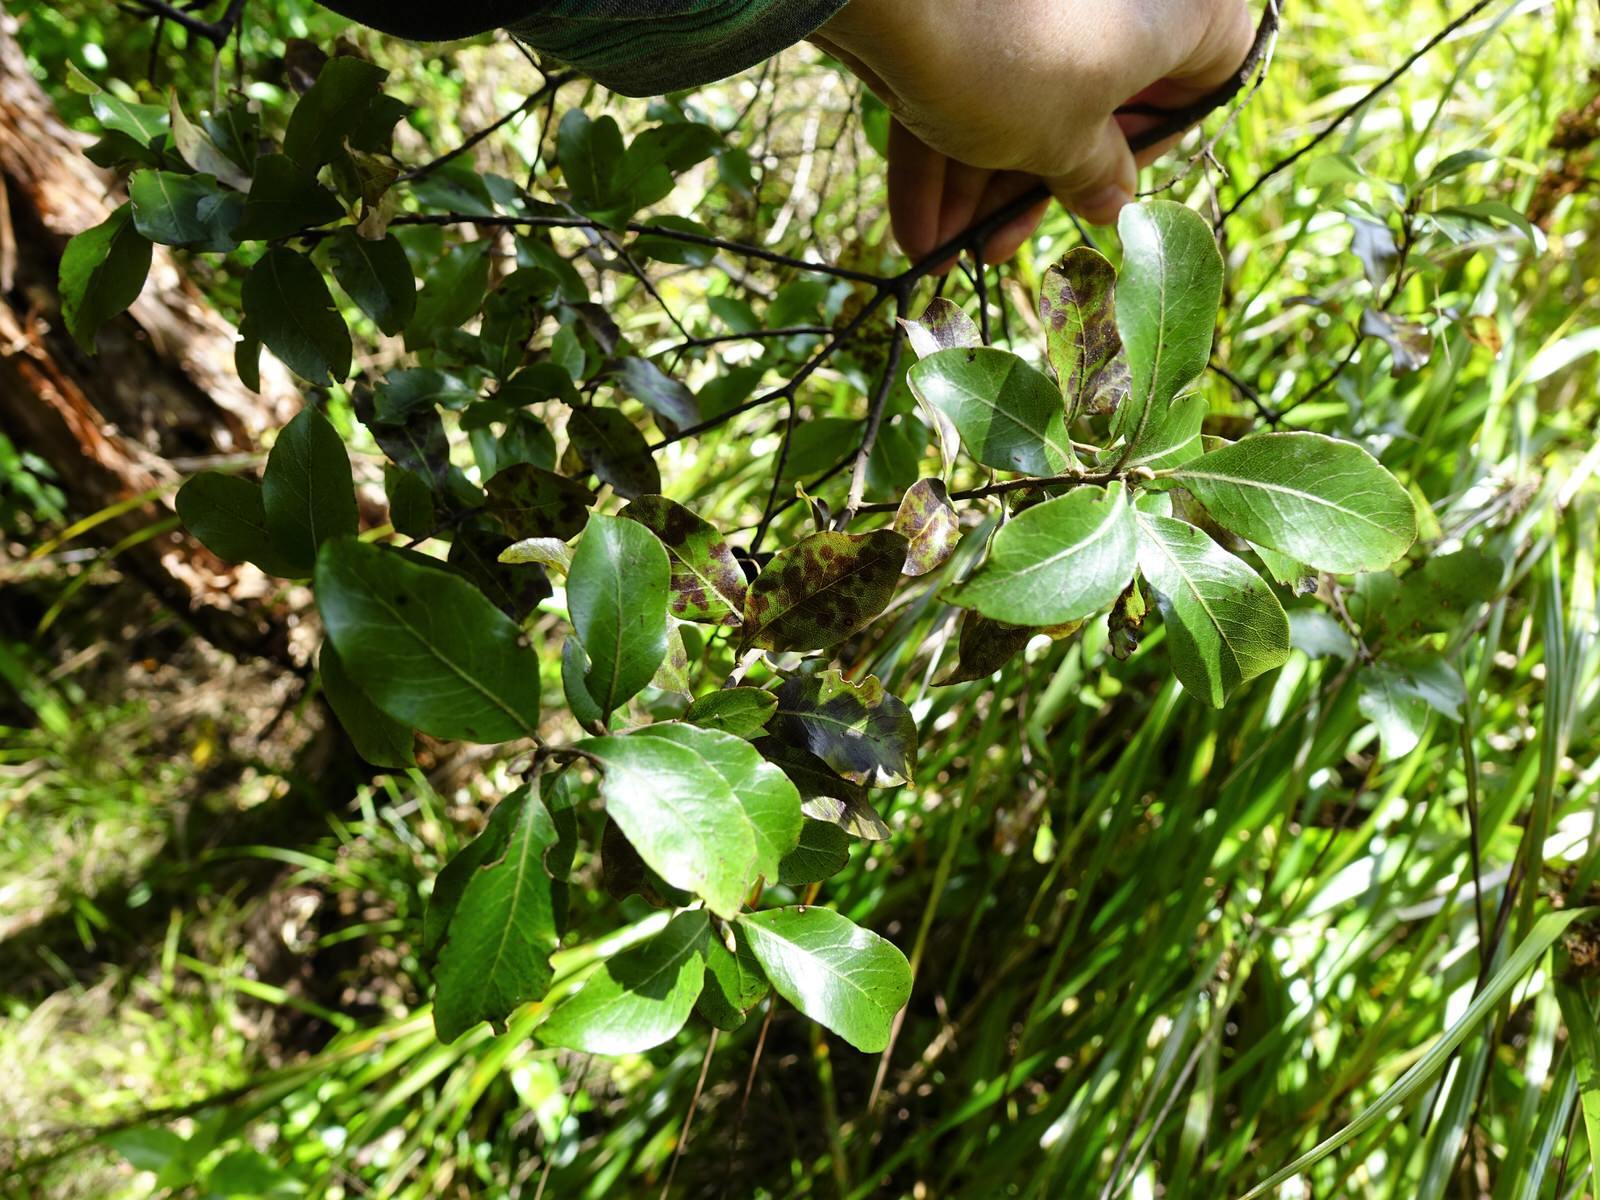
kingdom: Plantae
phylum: Tracheophyta
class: Magnoliopsida
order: Apiales
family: Pittosporaceae
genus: Pittosporum
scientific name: Pittosporum tenuifolium
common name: Kohuhu
